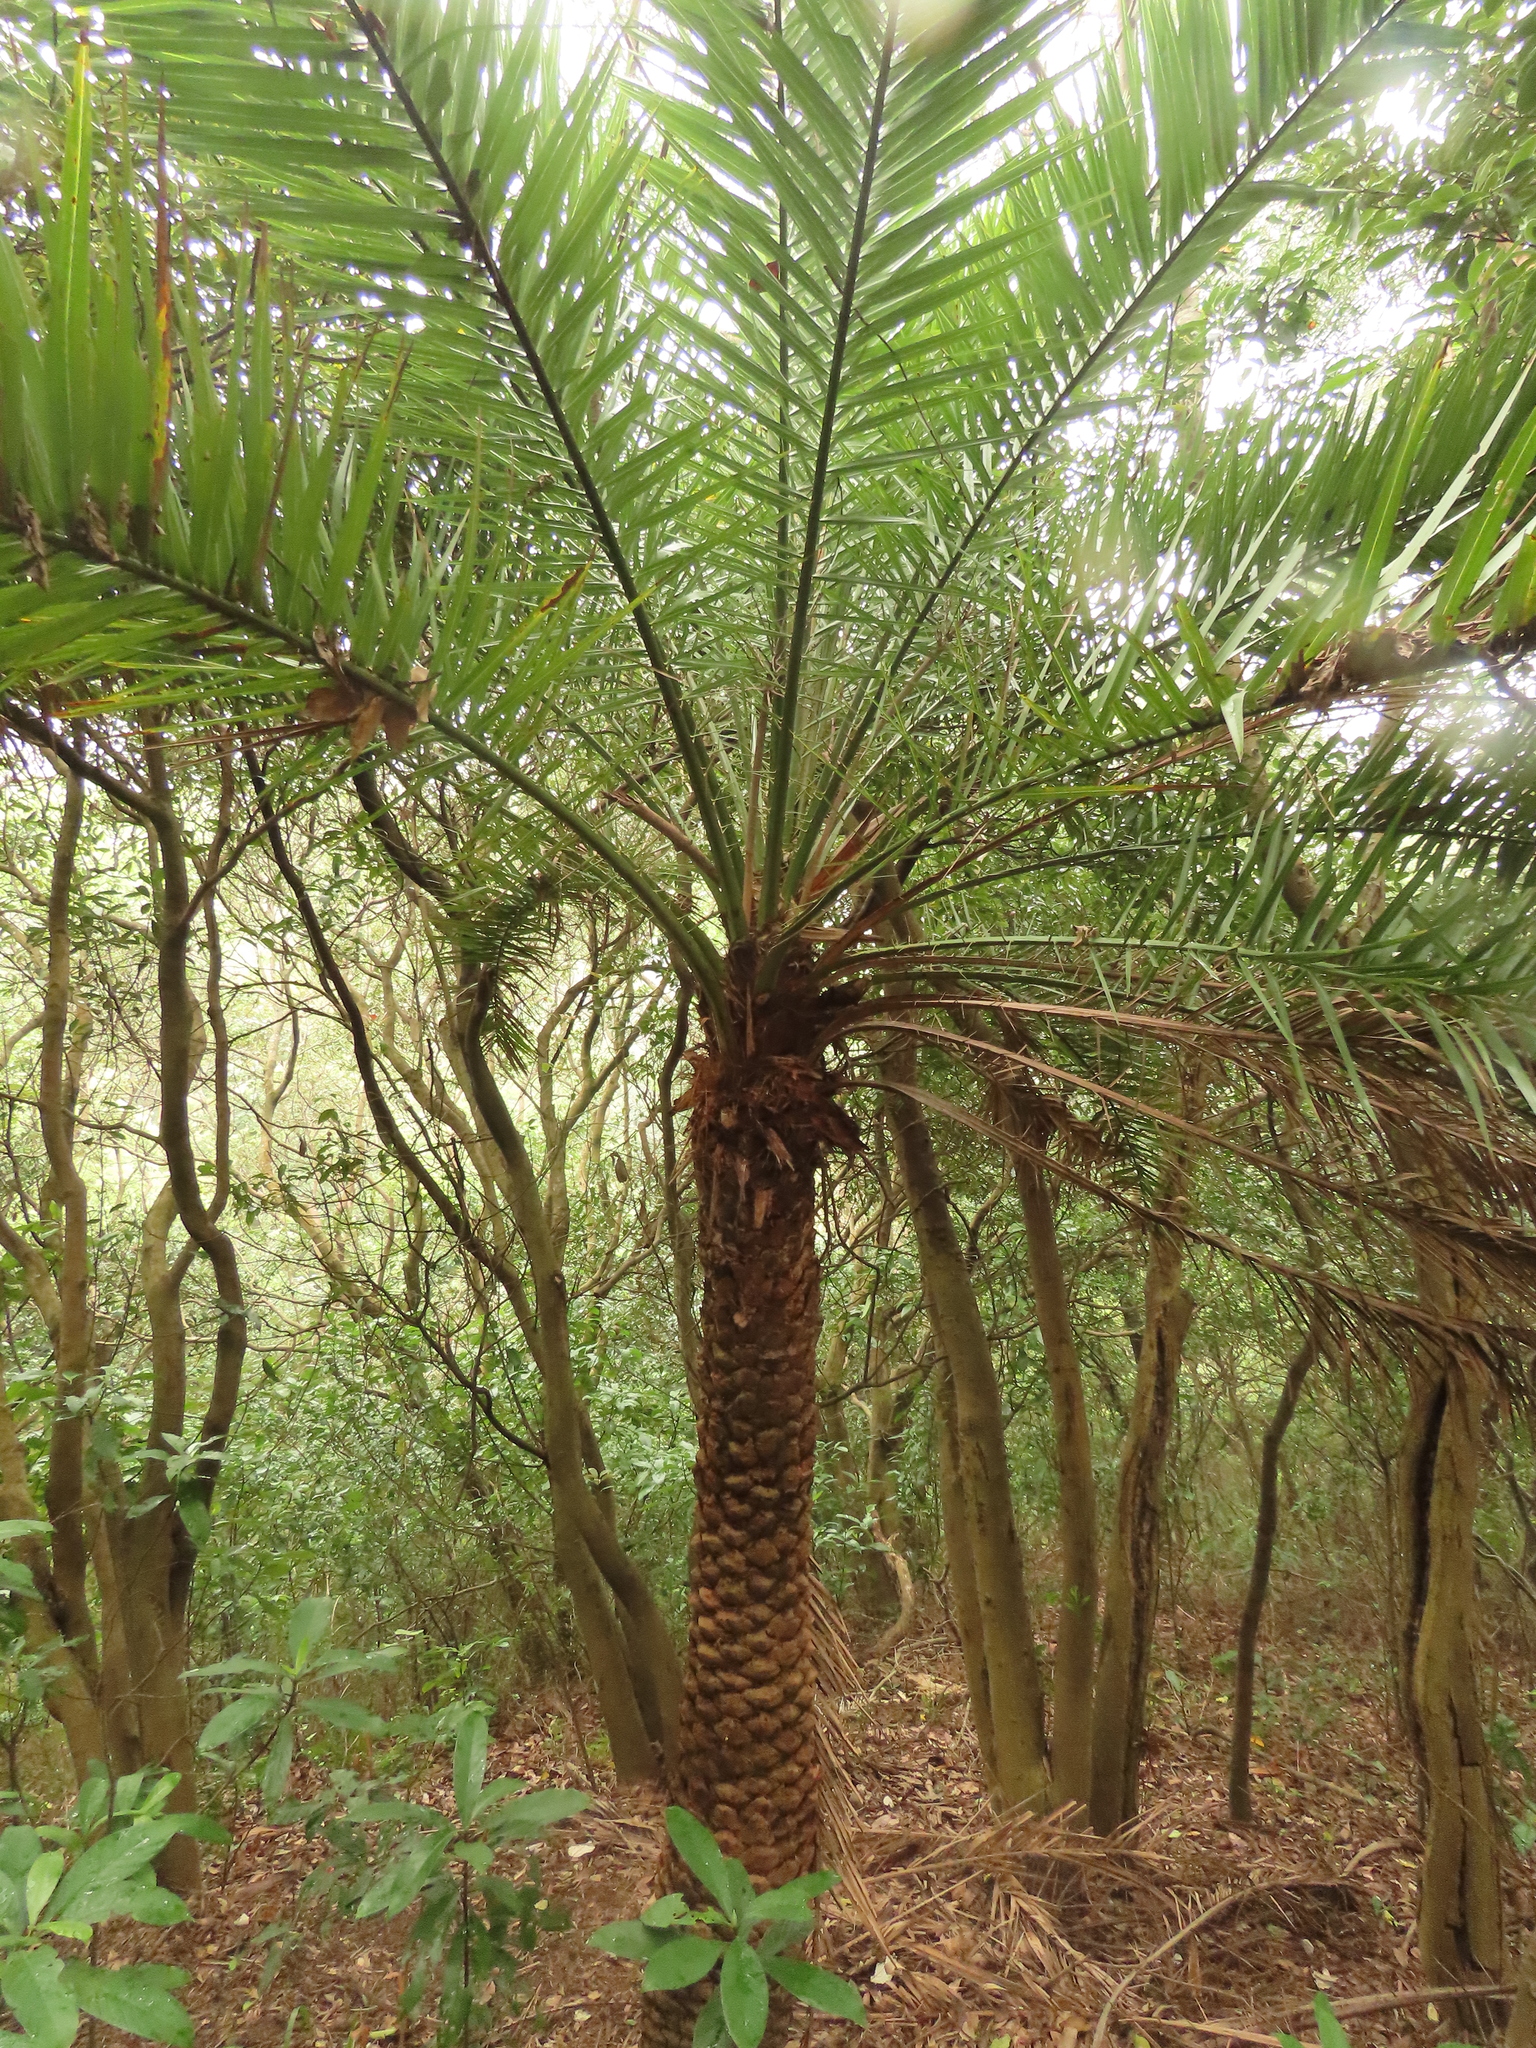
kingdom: Plantae
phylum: Tracheophyta
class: Liliopsida
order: Arecales
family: Arecaceae
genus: Phoenix
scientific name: Phoenix loureiroi
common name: Loureiro's palm
